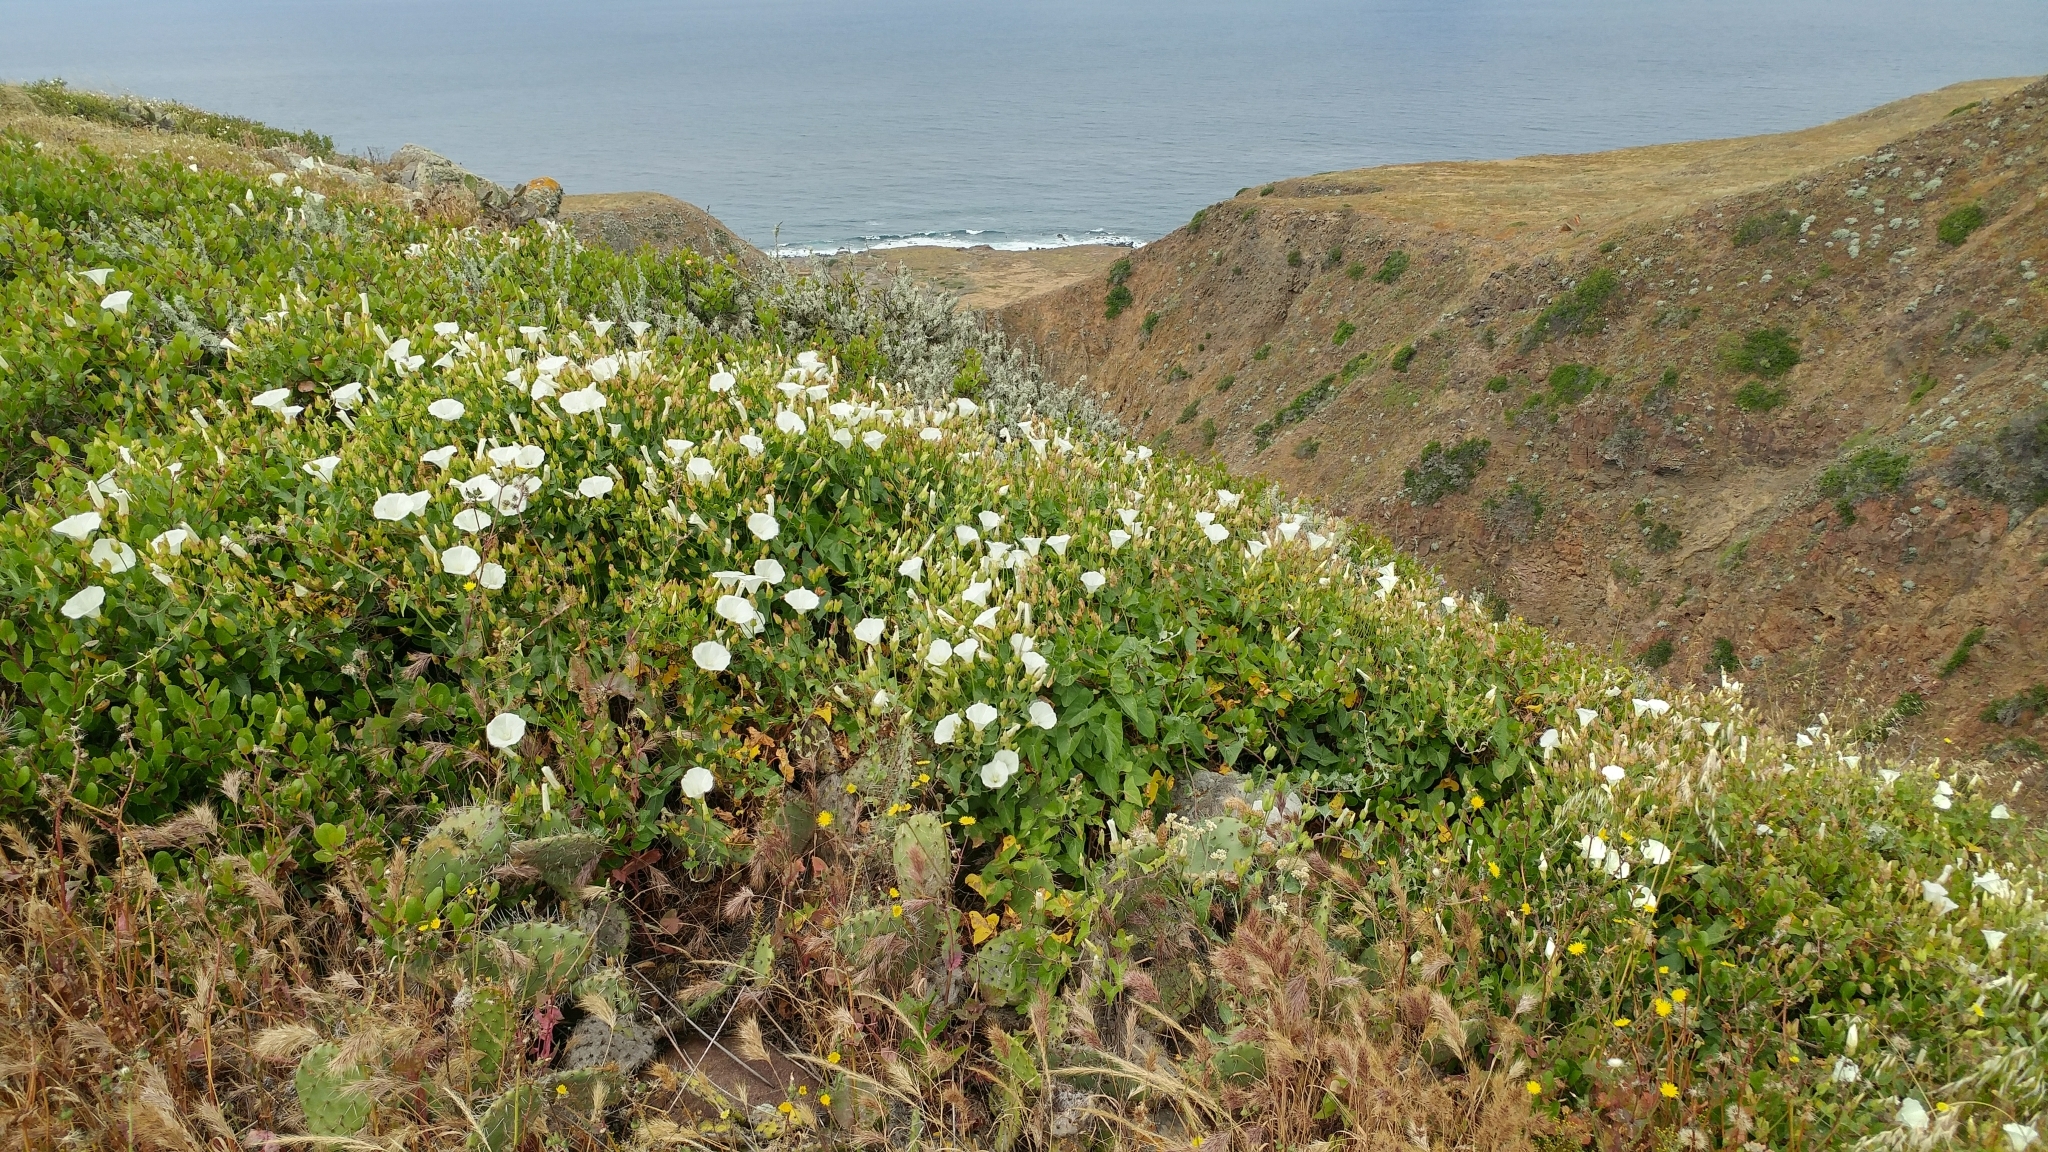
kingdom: Plantae
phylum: Tracheophyta
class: Magnoliopsida
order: Solanales
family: Convolvulaceae
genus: Calystegia
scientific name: Calystegia macrostegia
